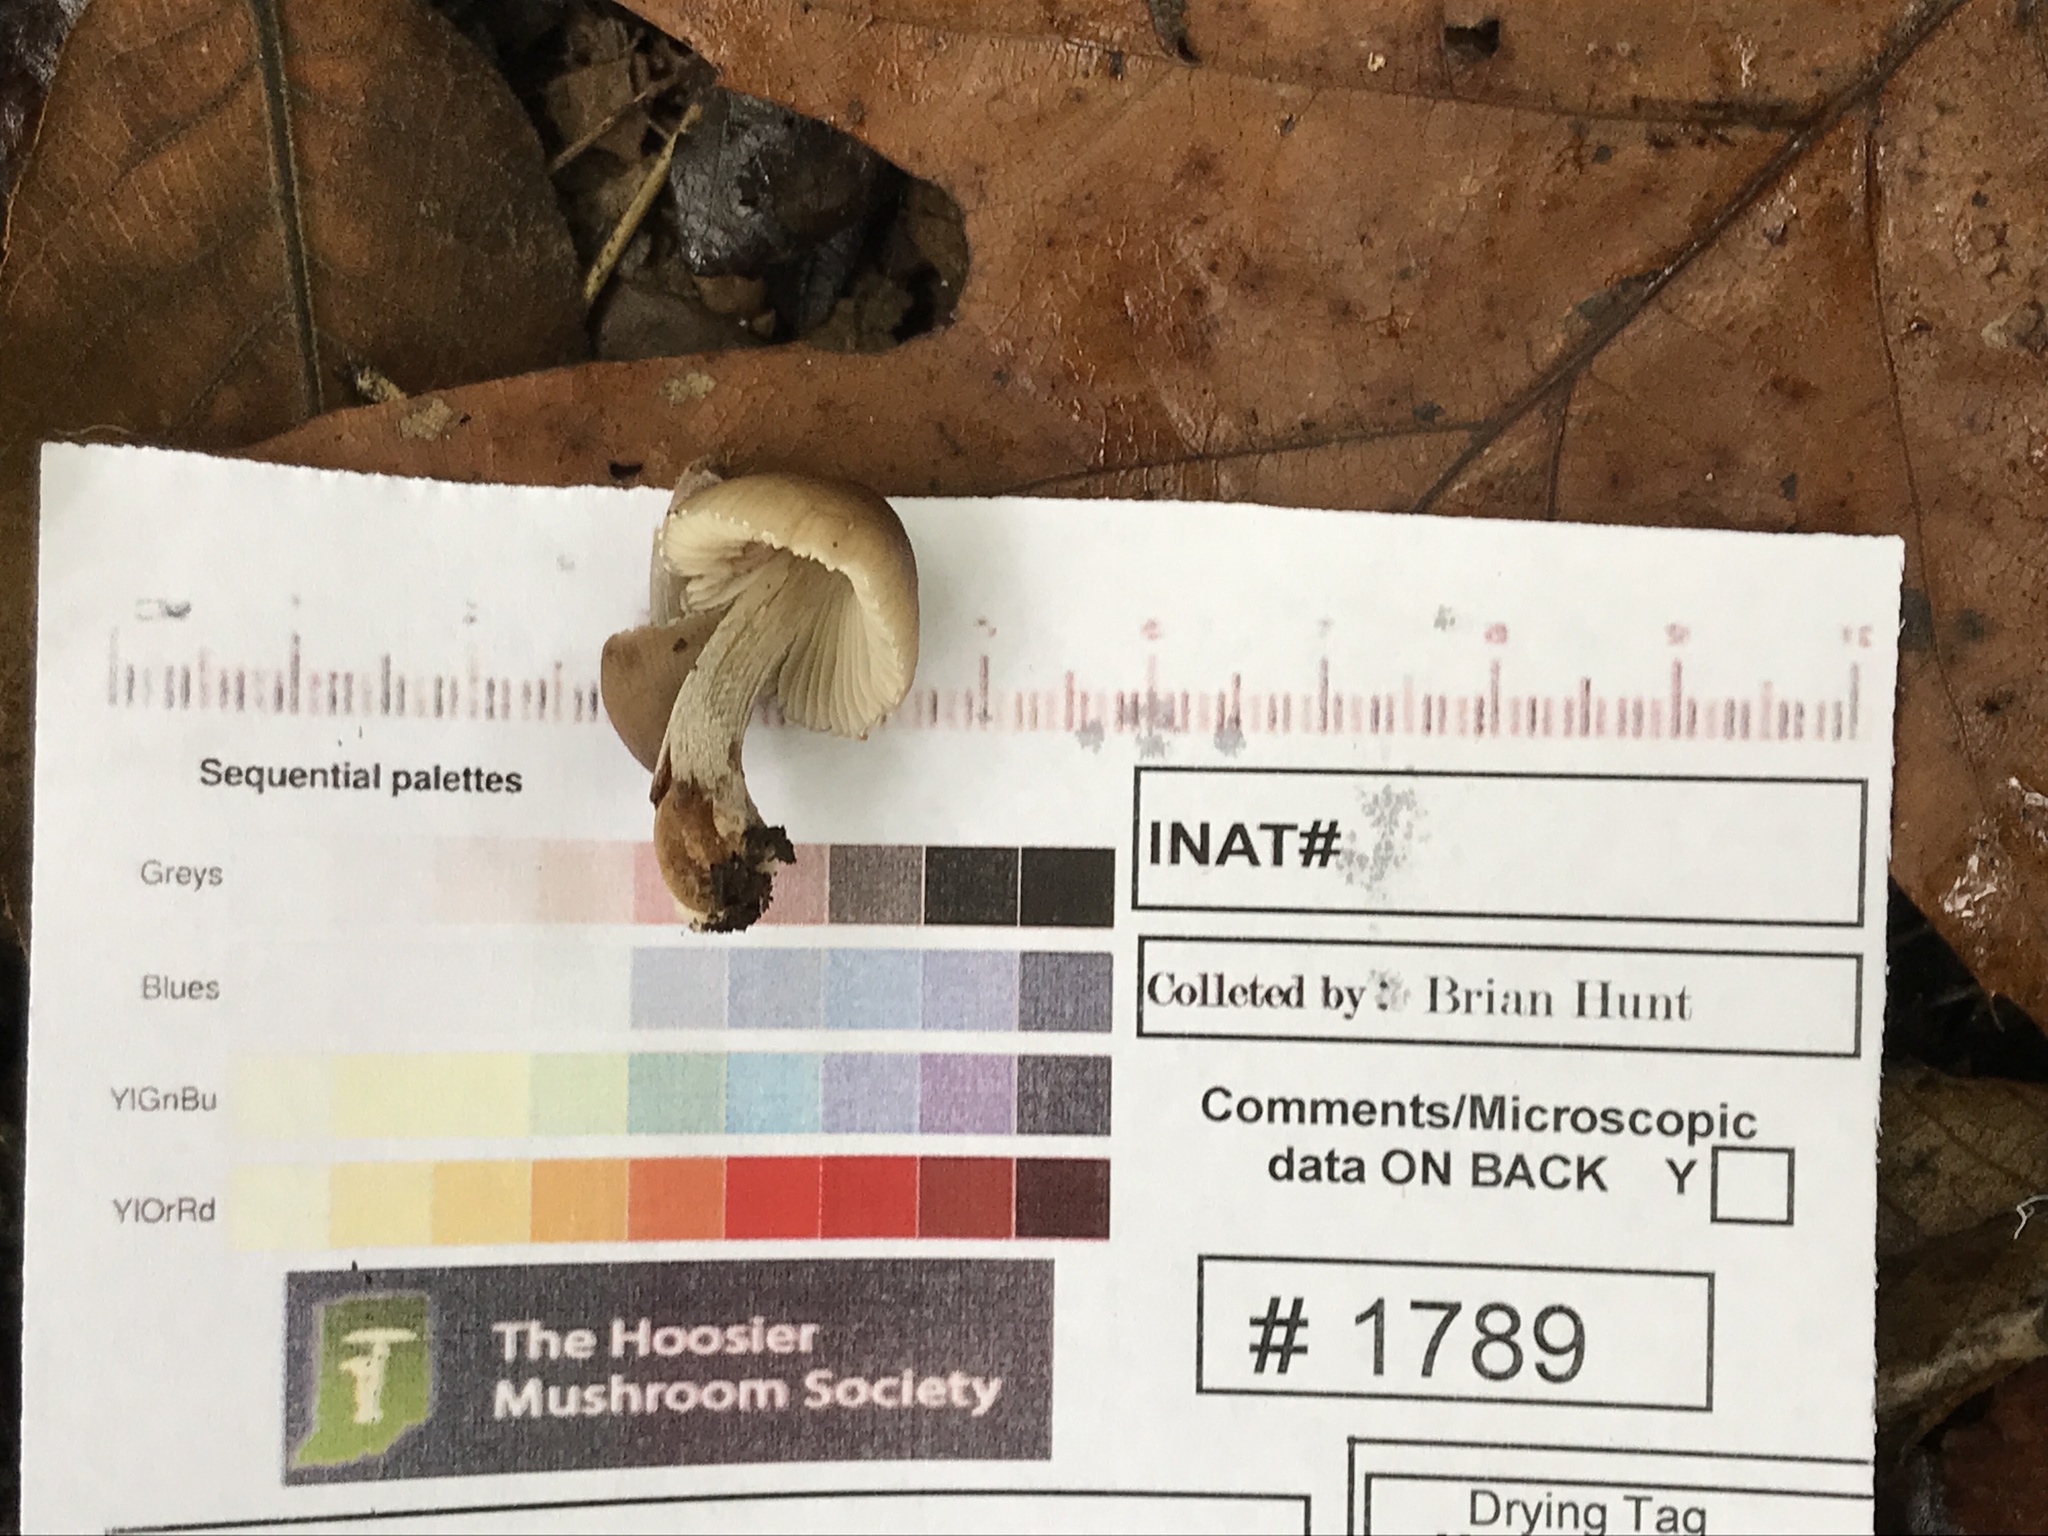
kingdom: Fungi
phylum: Basidiomycota
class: Agaricomycetes
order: Agaricales
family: Mycenaceae
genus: Mycena
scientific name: Mycena inclinata
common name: Clustered bonnet
